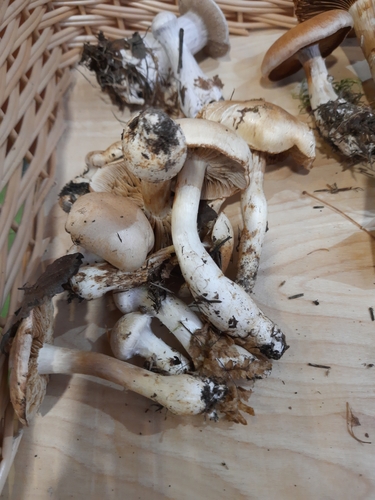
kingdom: Fungi
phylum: Basidiomycota
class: Agaricomycetes
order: Agaricales
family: Cortinariaceae
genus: Cortinarius
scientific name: Cortinarius
